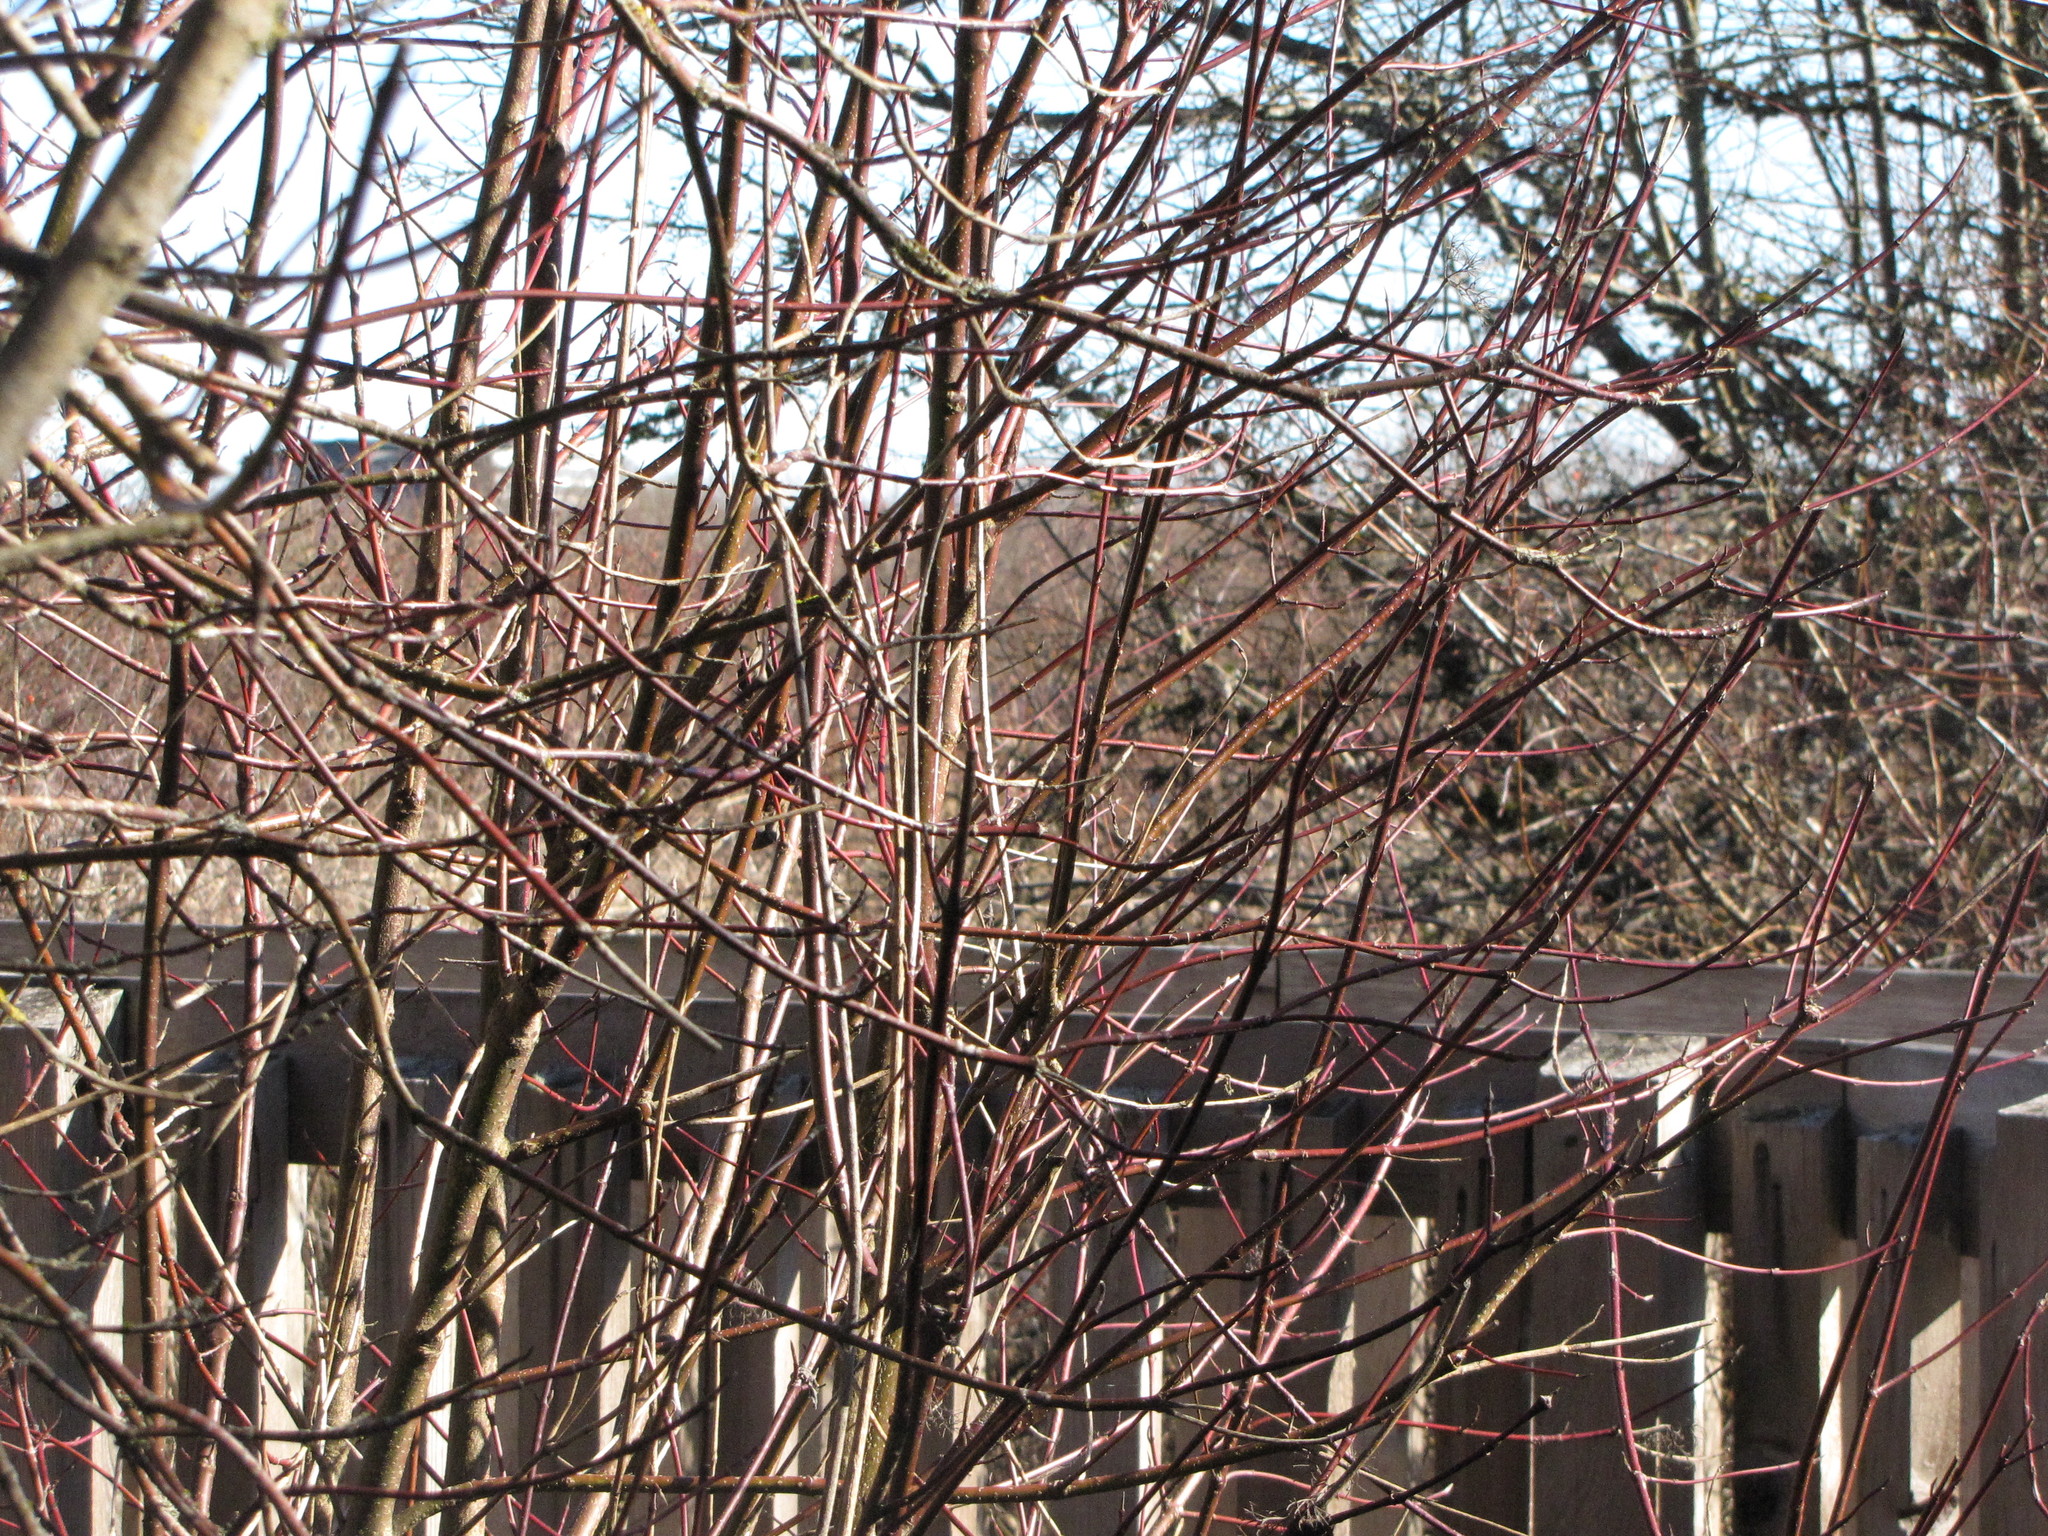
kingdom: Plantae
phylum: Tracheophyta
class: Magnoliopsida
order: Cornales
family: Cornaceae
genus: Cornus
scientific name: Cornus sericea
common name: Red-osier dogwood
